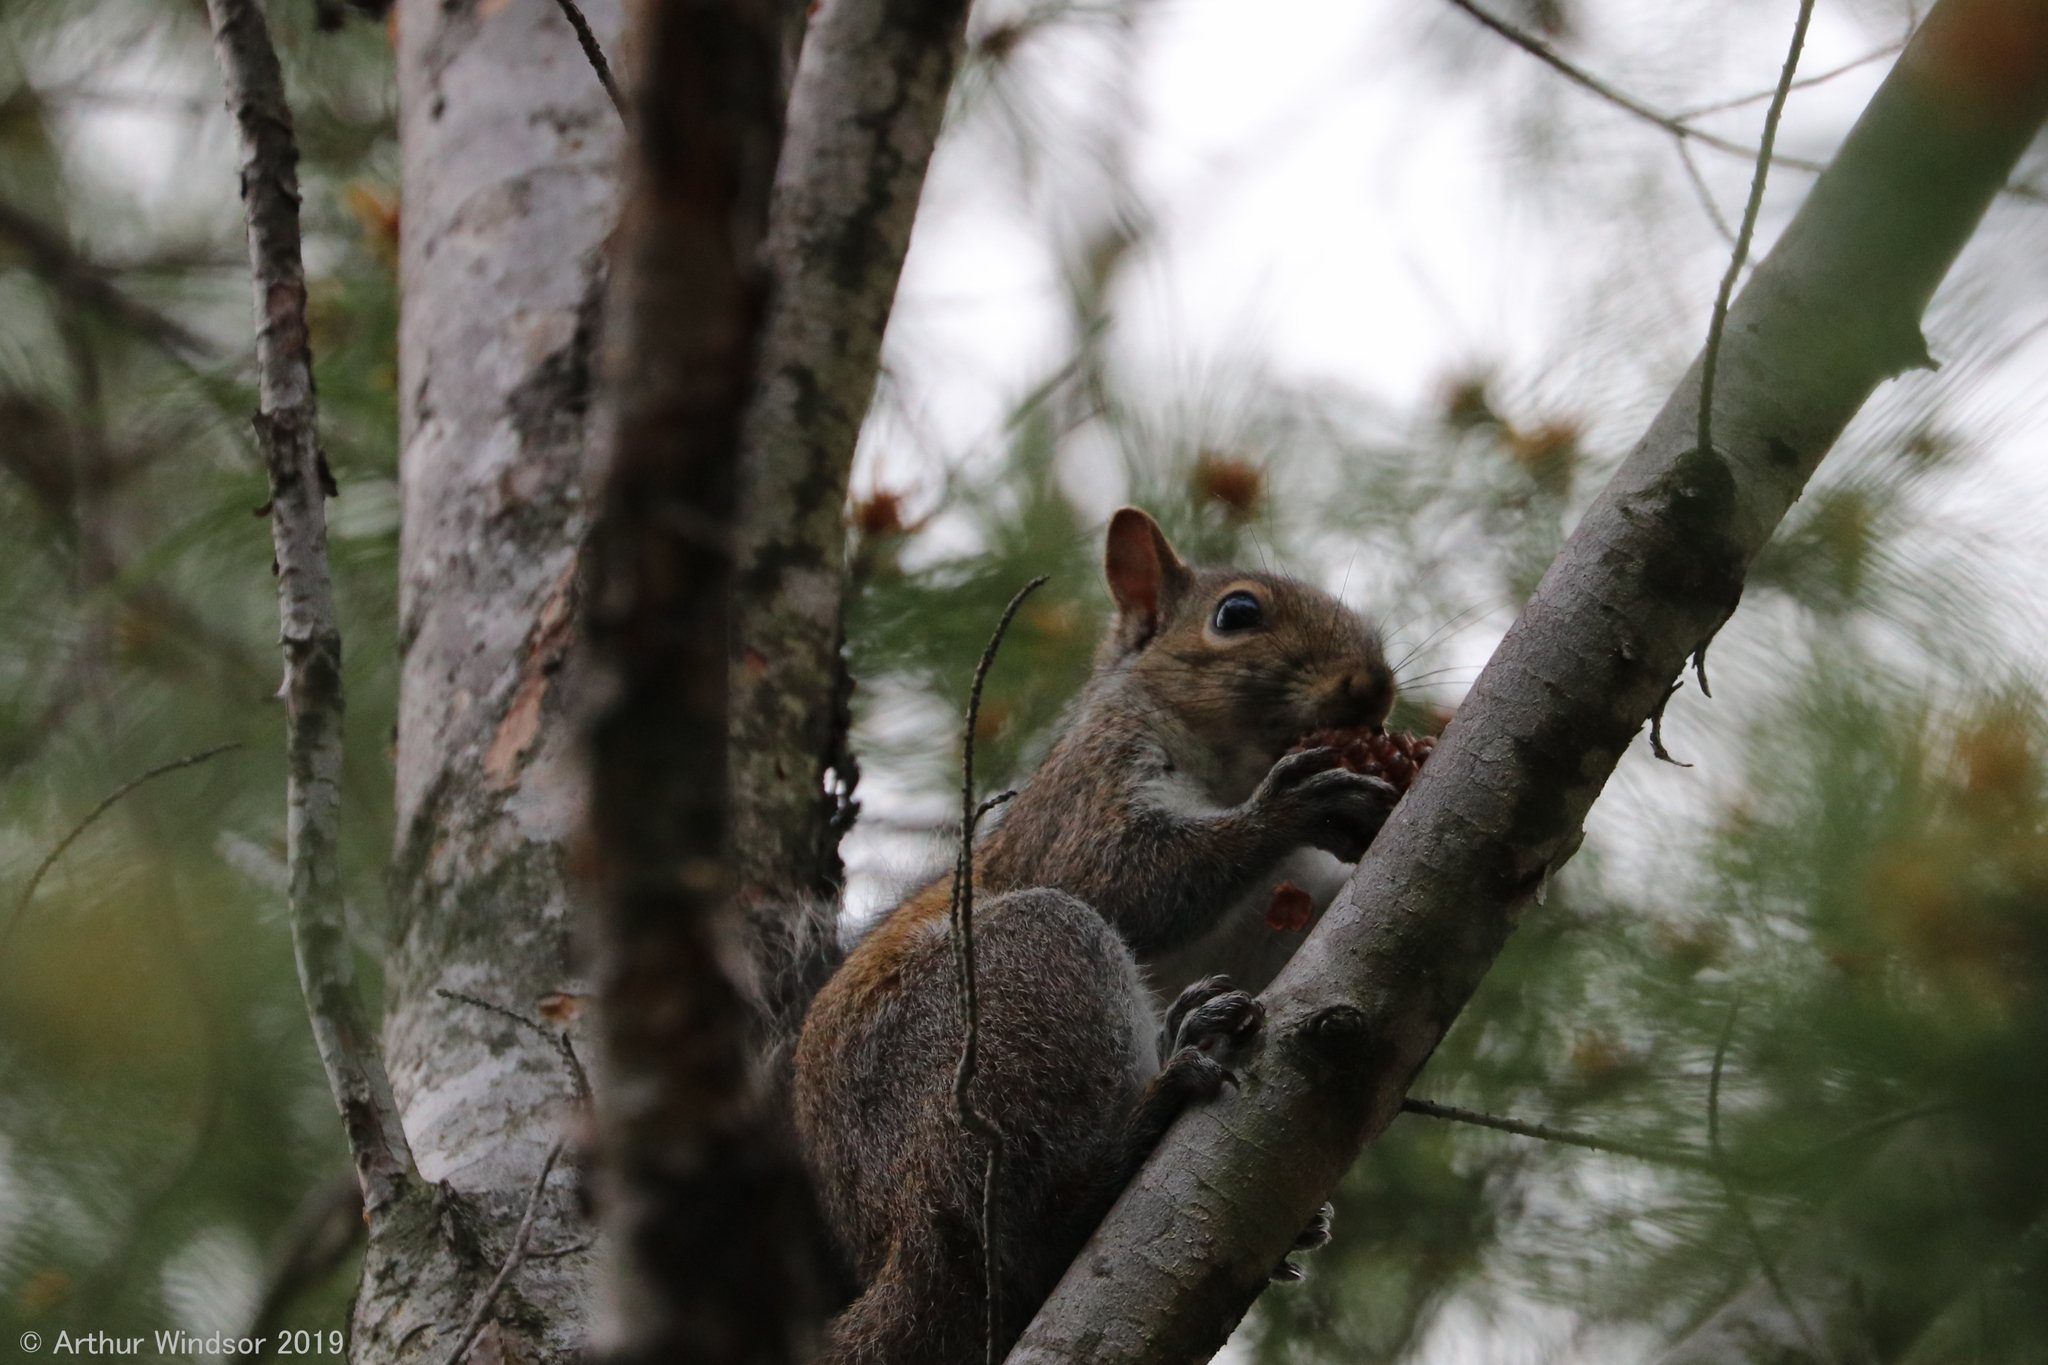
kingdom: Animalia
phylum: Chordata
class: Mammalia
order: Rodentia
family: Sciuridae
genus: Sciurus
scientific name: Sciurus carolinensis
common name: Eastern gray squirrel
